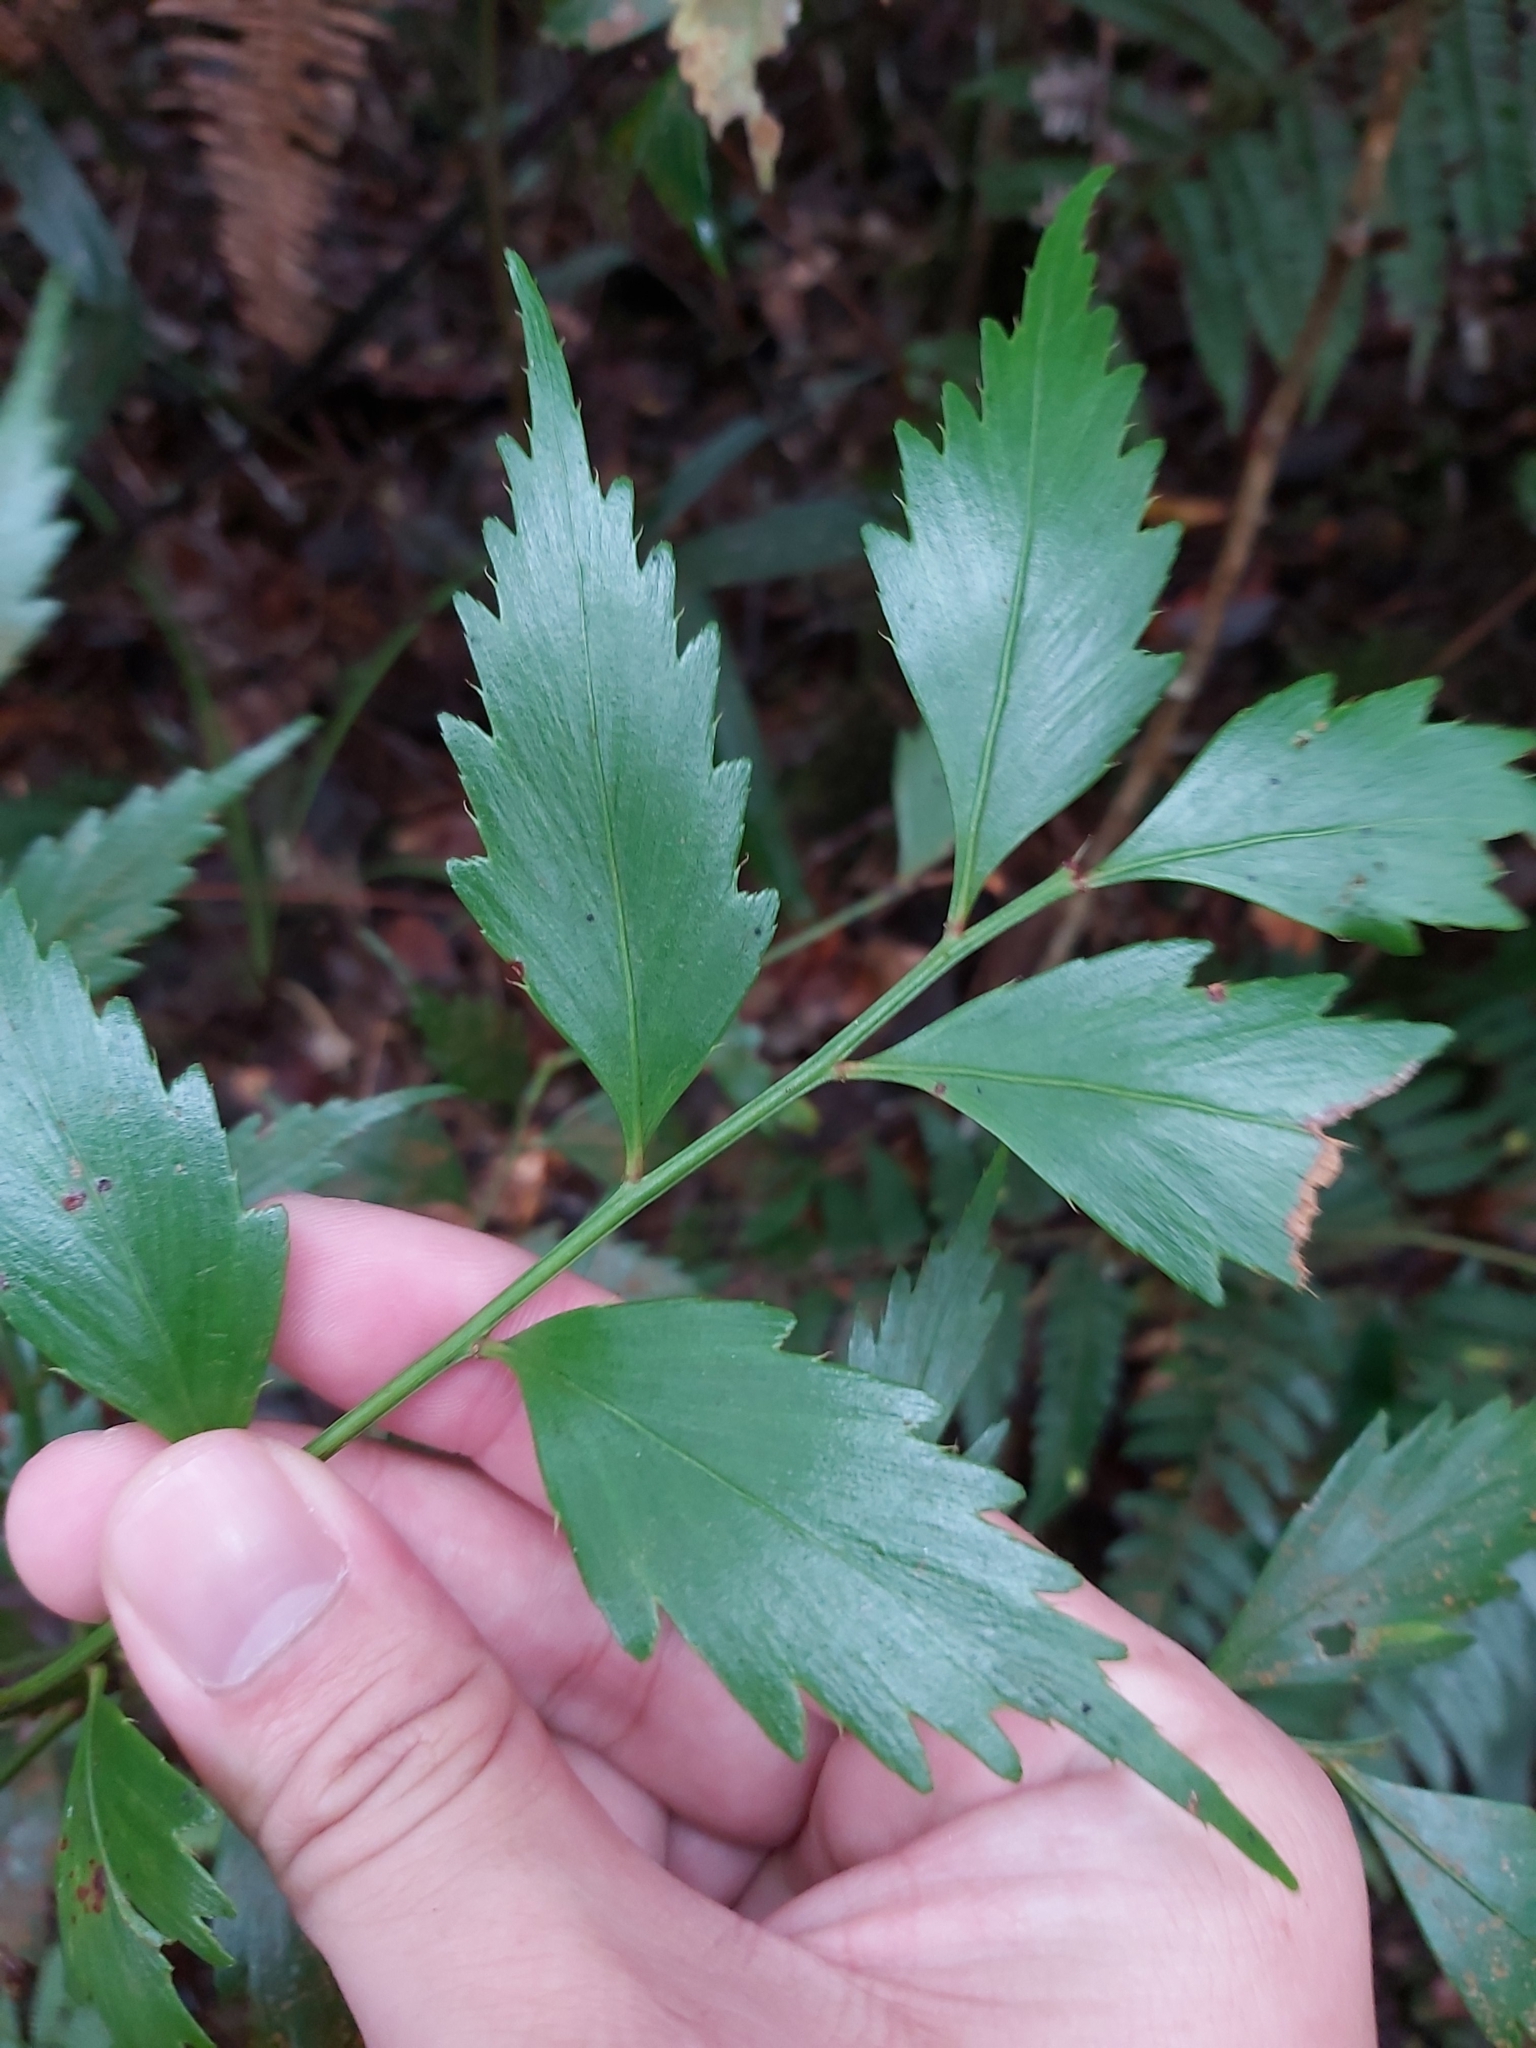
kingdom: Plantae
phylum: Tracheophyta
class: Pinopsida
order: Pinales
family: Phyllocladaceae
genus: Phyllocladus
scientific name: Phyllocladus hypophyllus
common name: Celery pine
